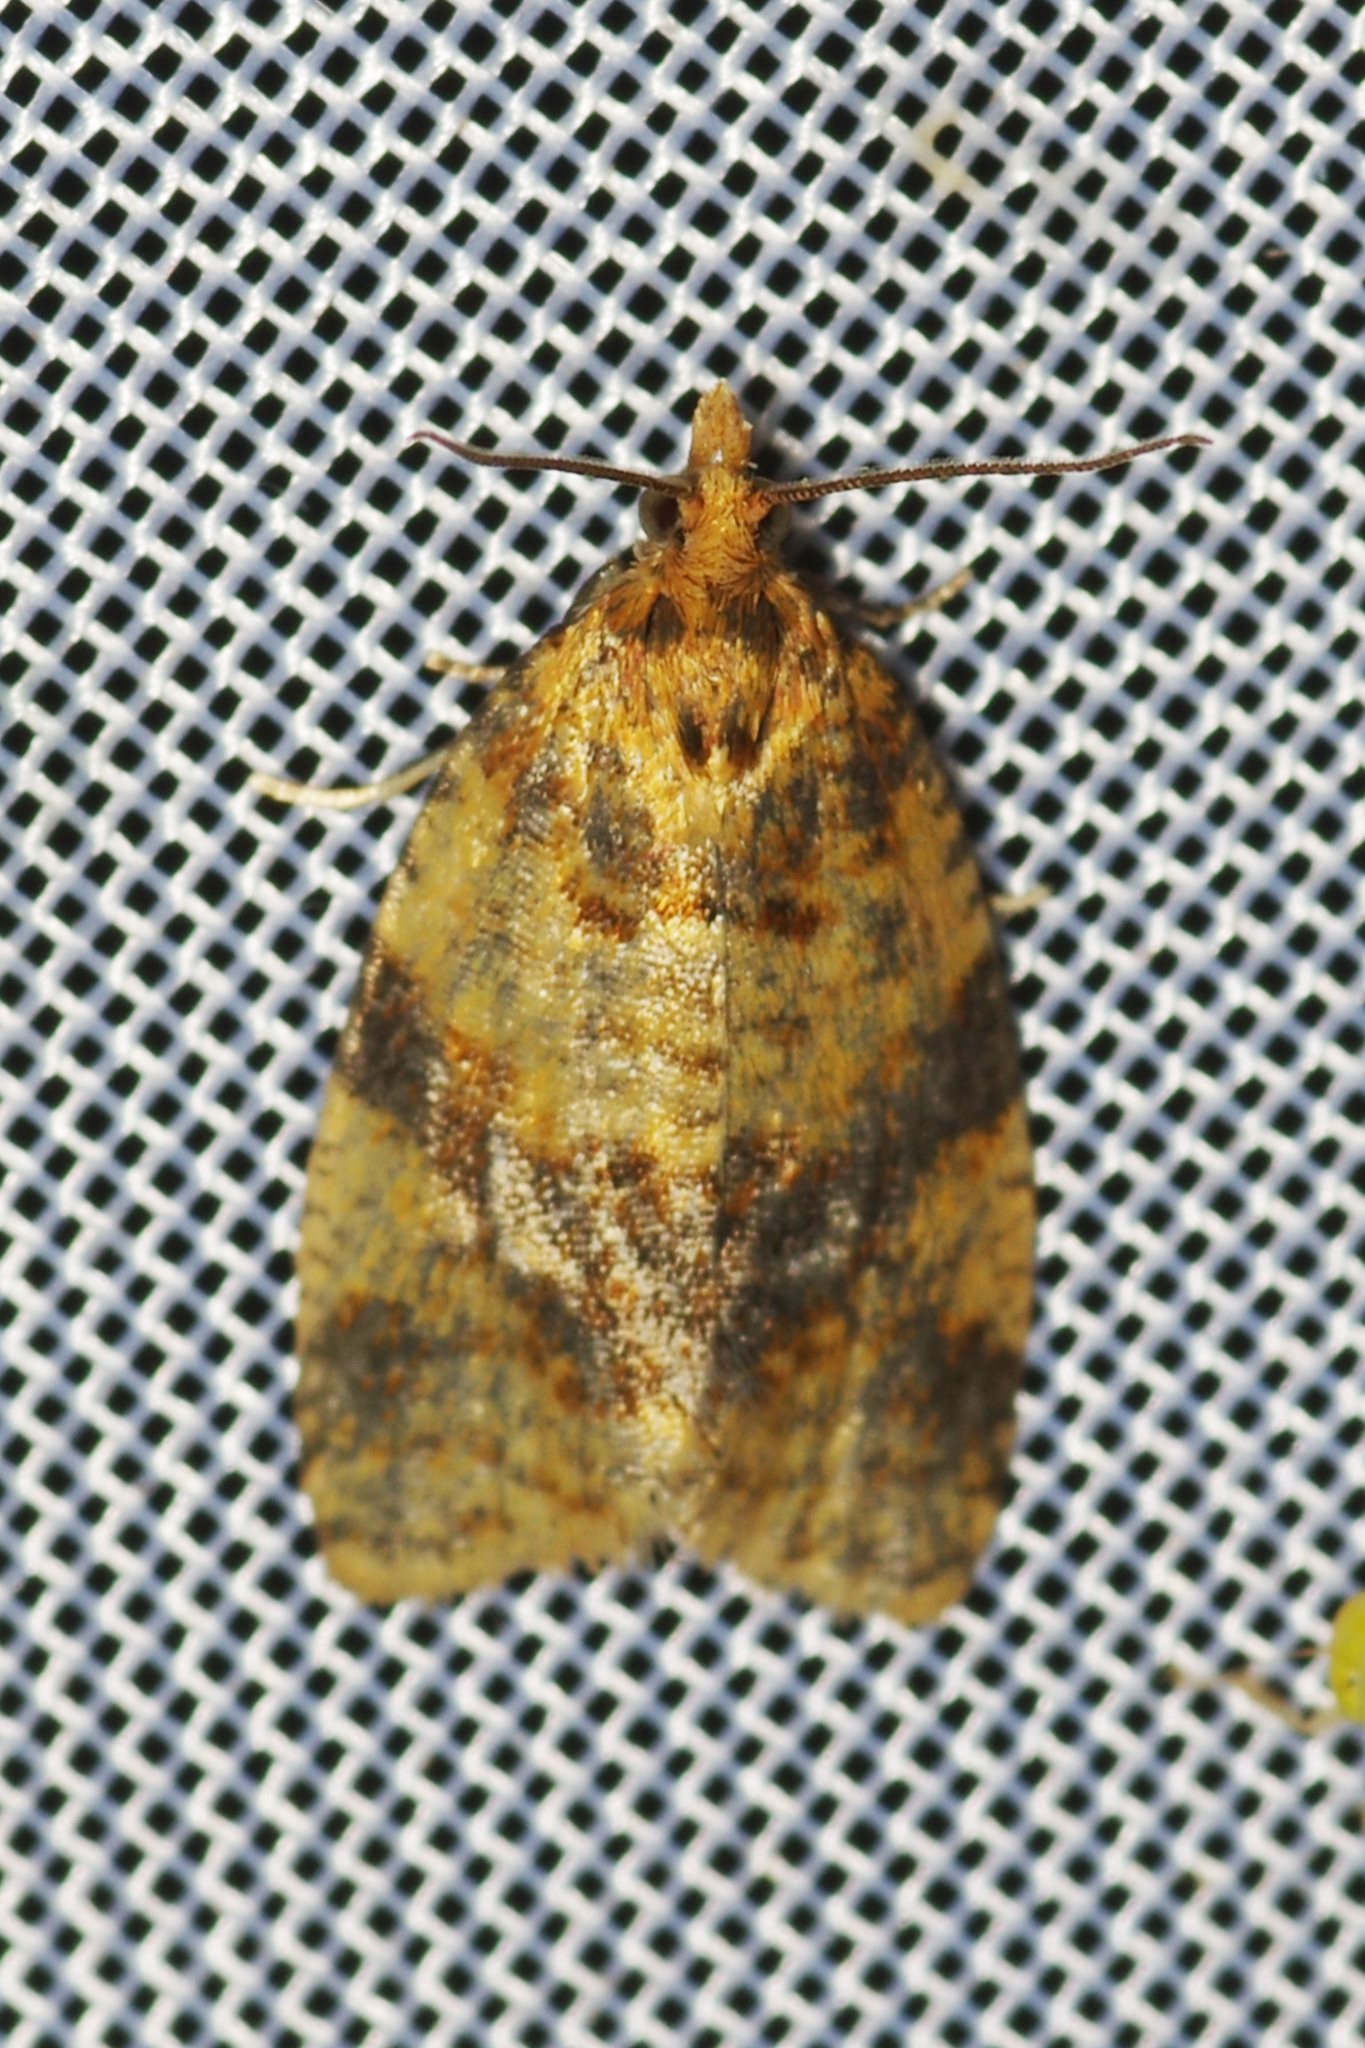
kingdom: Animalia
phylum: Arthropoda
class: Insecta
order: Lepidoptera
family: Tortricidae
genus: Epagoge
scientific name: Epagoge grotiana
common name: Brown-barred twist
